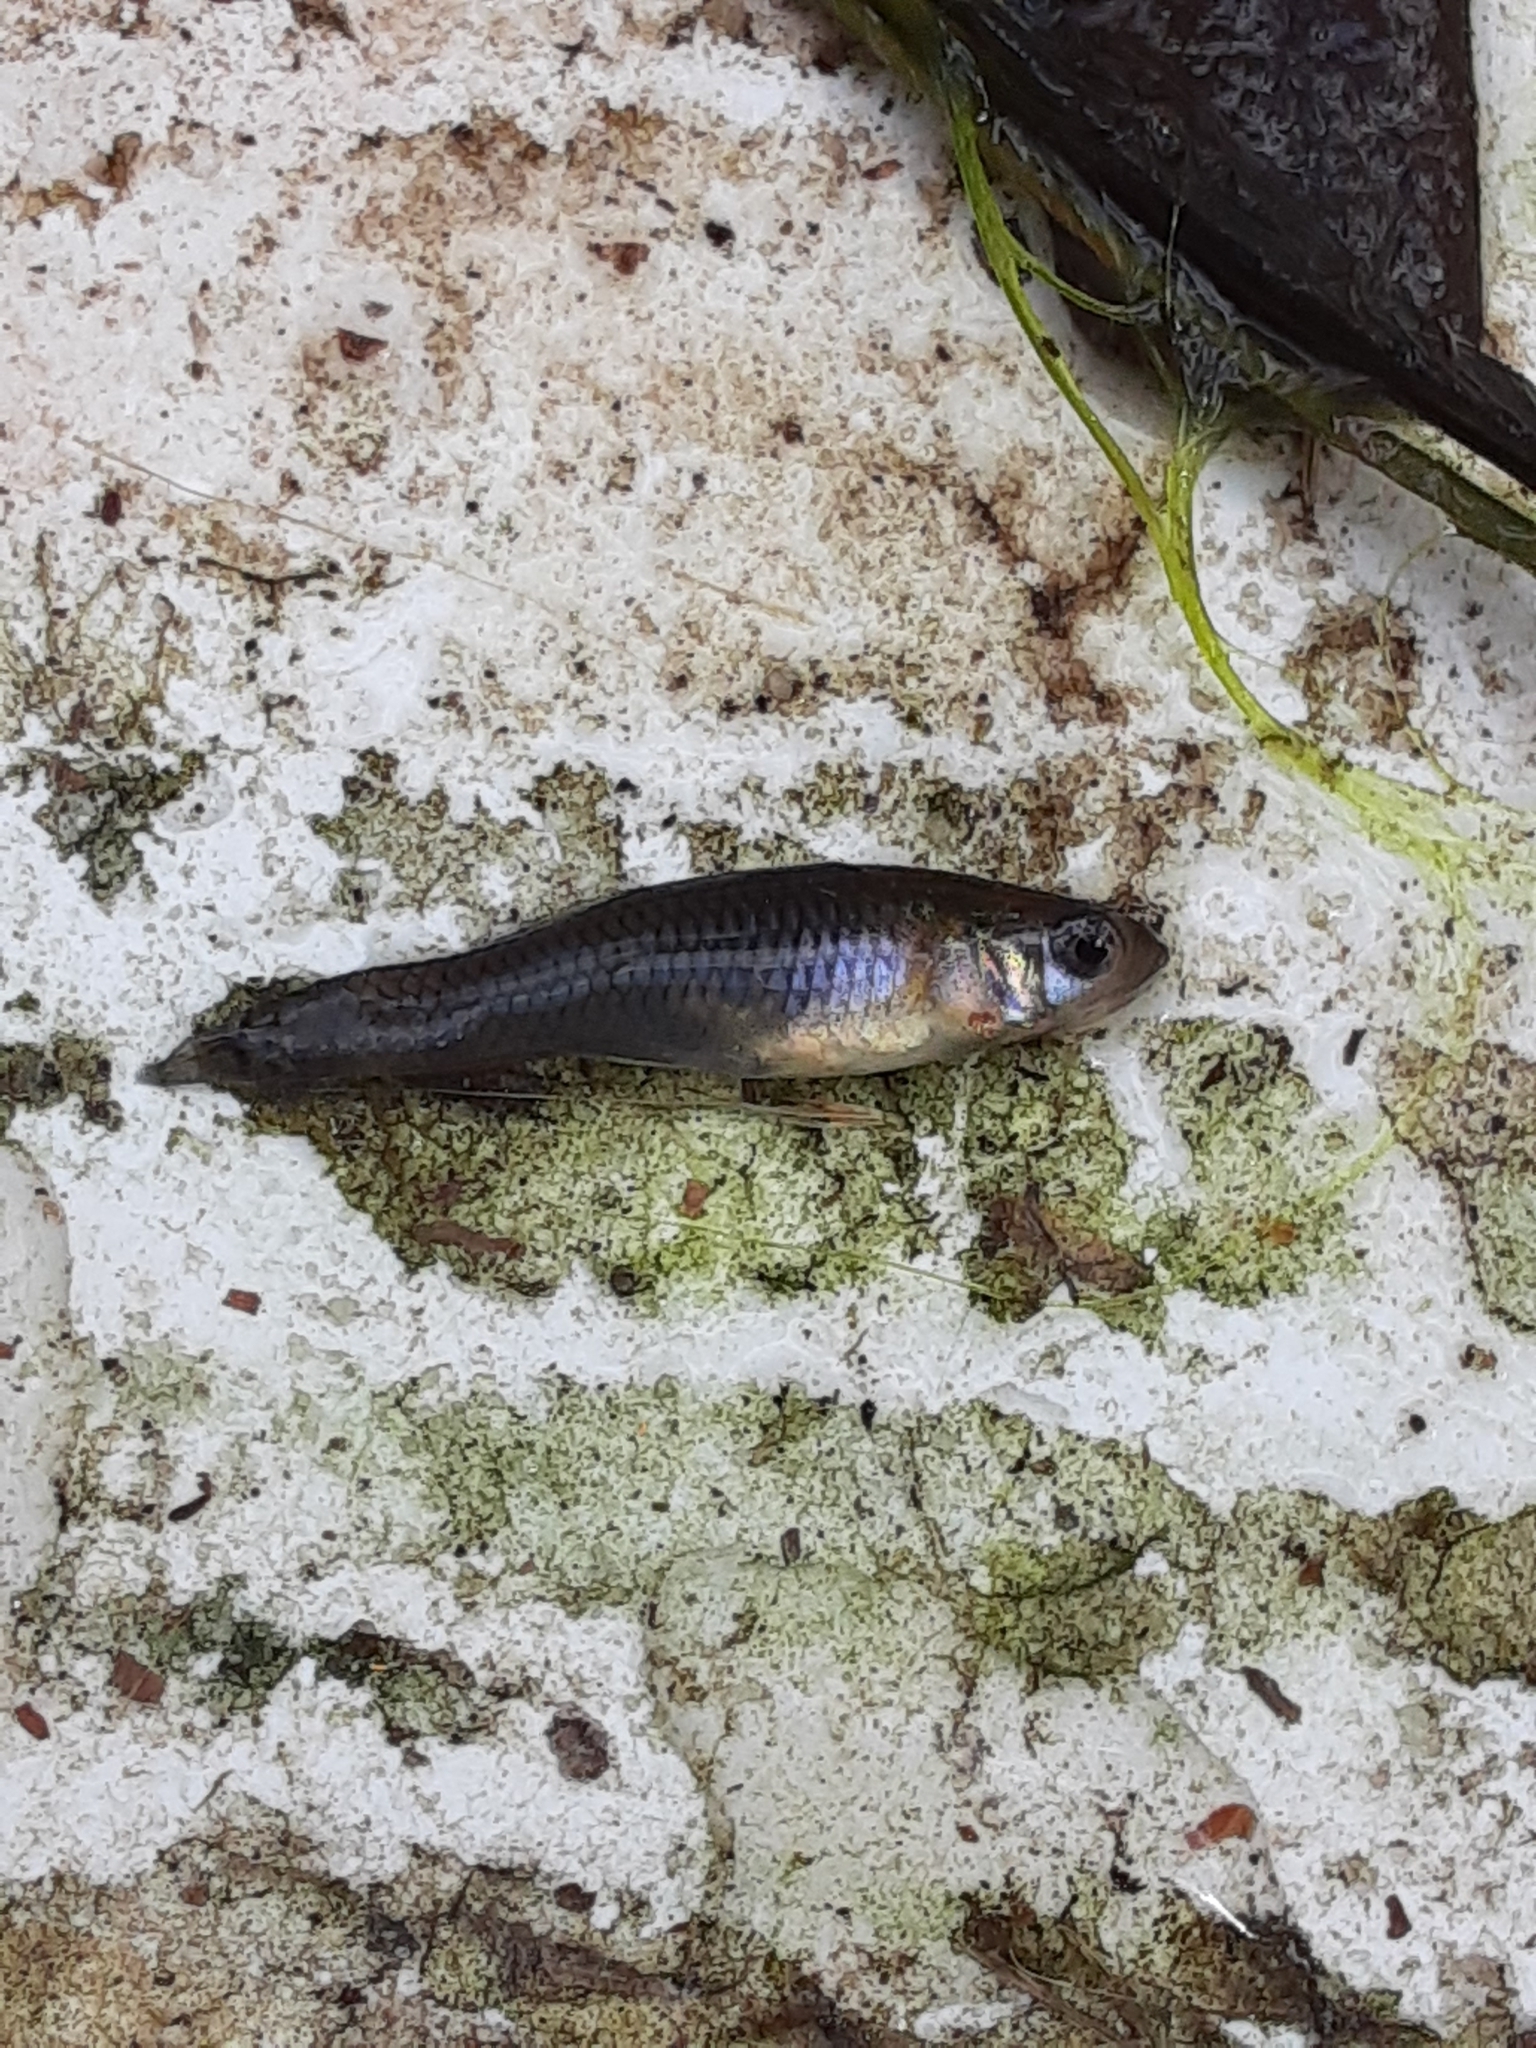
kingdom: Animalia
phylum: Chordata
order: Cyprinodontiformes
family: Poeciliidae
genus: Gambusia
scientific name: Gambusia holbrooki
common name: Eastern mosquitofish
